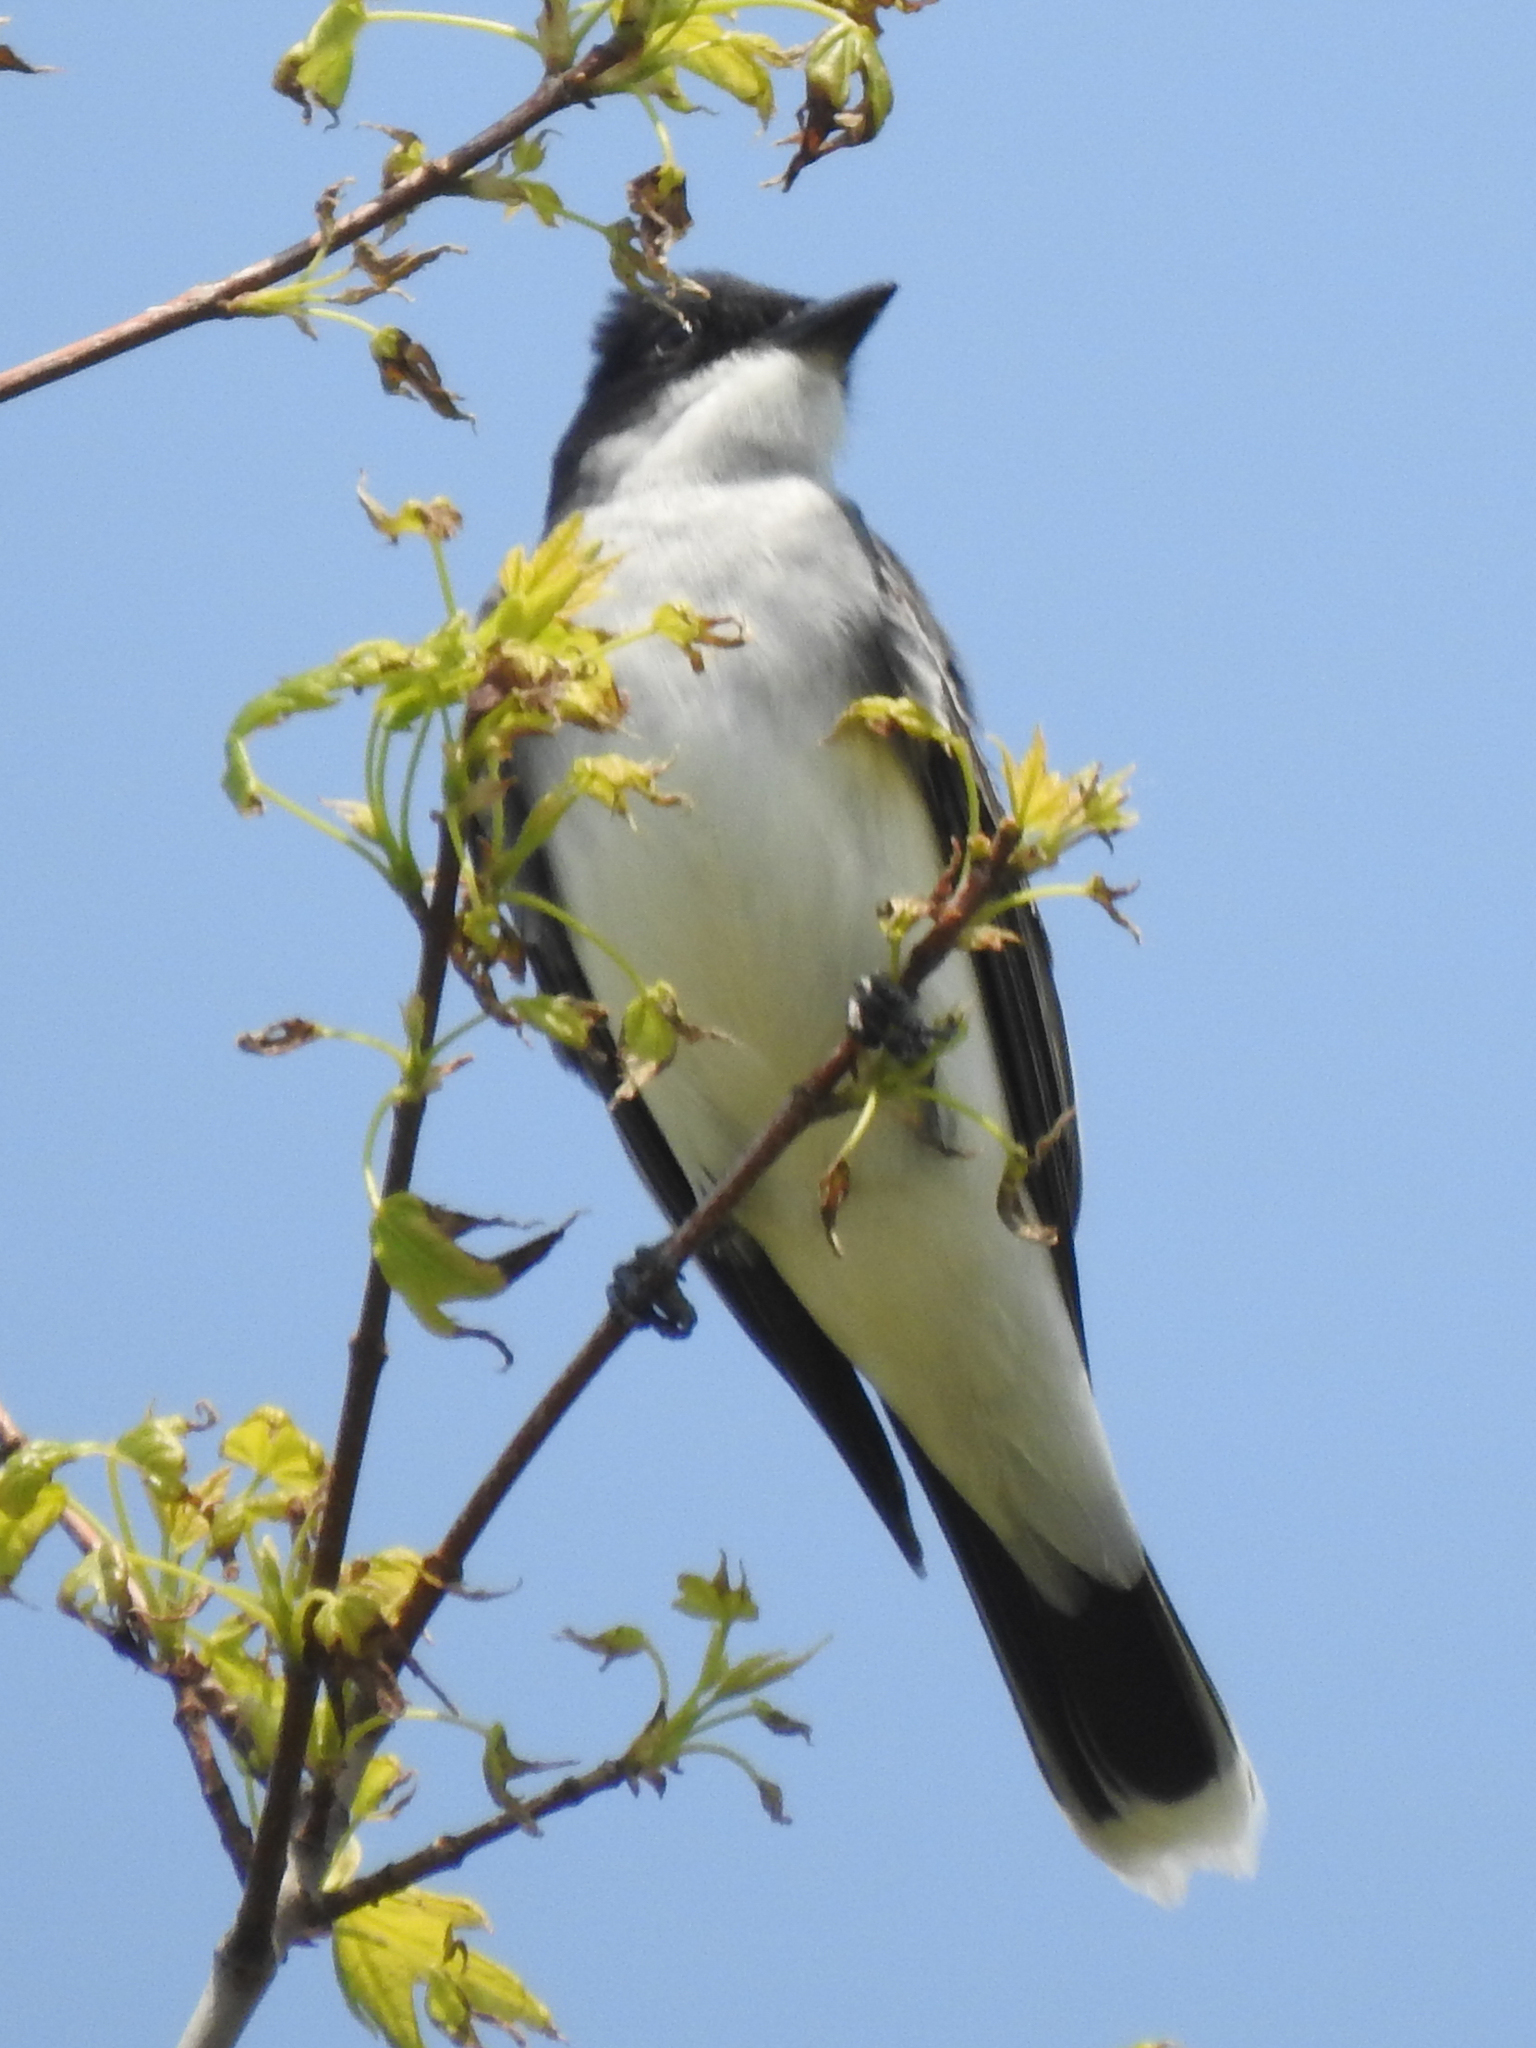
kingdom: Animalia
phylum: Chordata
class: Aves
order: Passeriformes
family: Tyrannidae
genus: Tyrannus
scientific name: Tyrannus tyrannus
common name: Eastern kingbird
